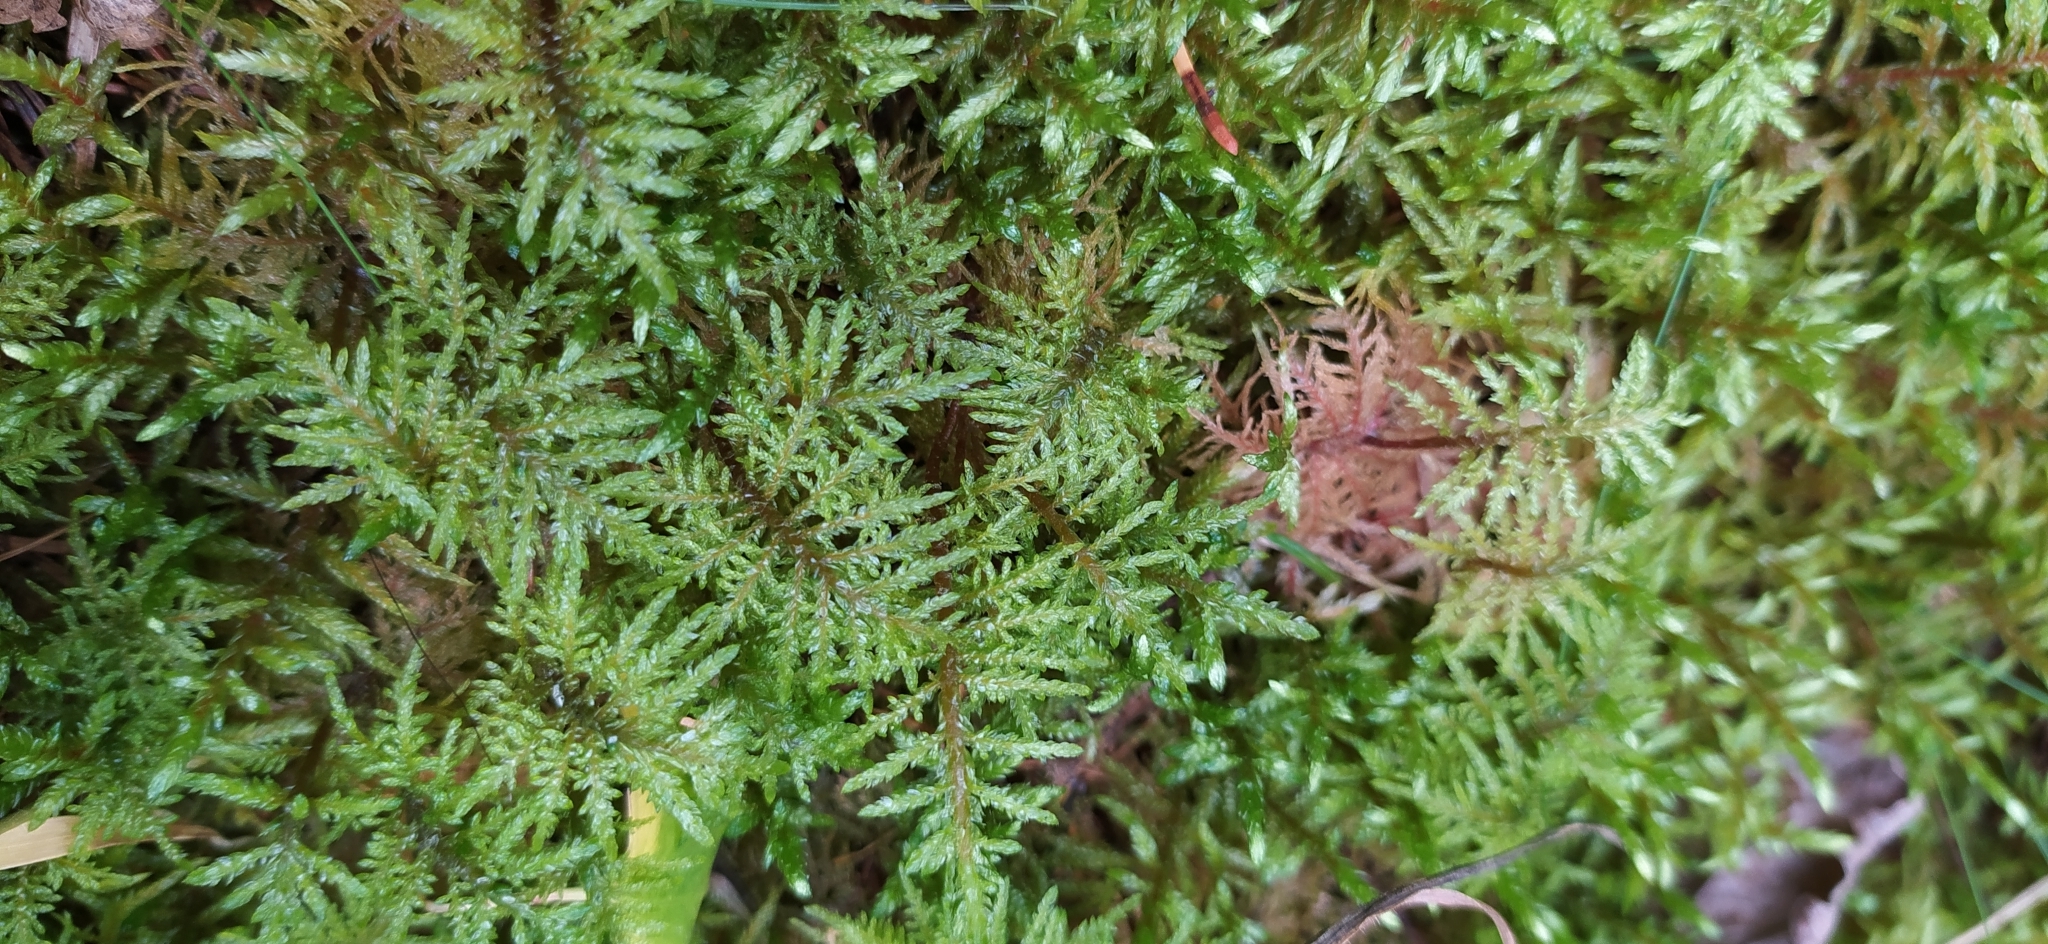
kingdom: Plantae
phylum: Bryophyta
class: Bryopsida
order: Hypnales
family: Hylocomiaceae
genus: Hylocomium
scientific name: Hylocomium splendens
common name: Stairstep moss
